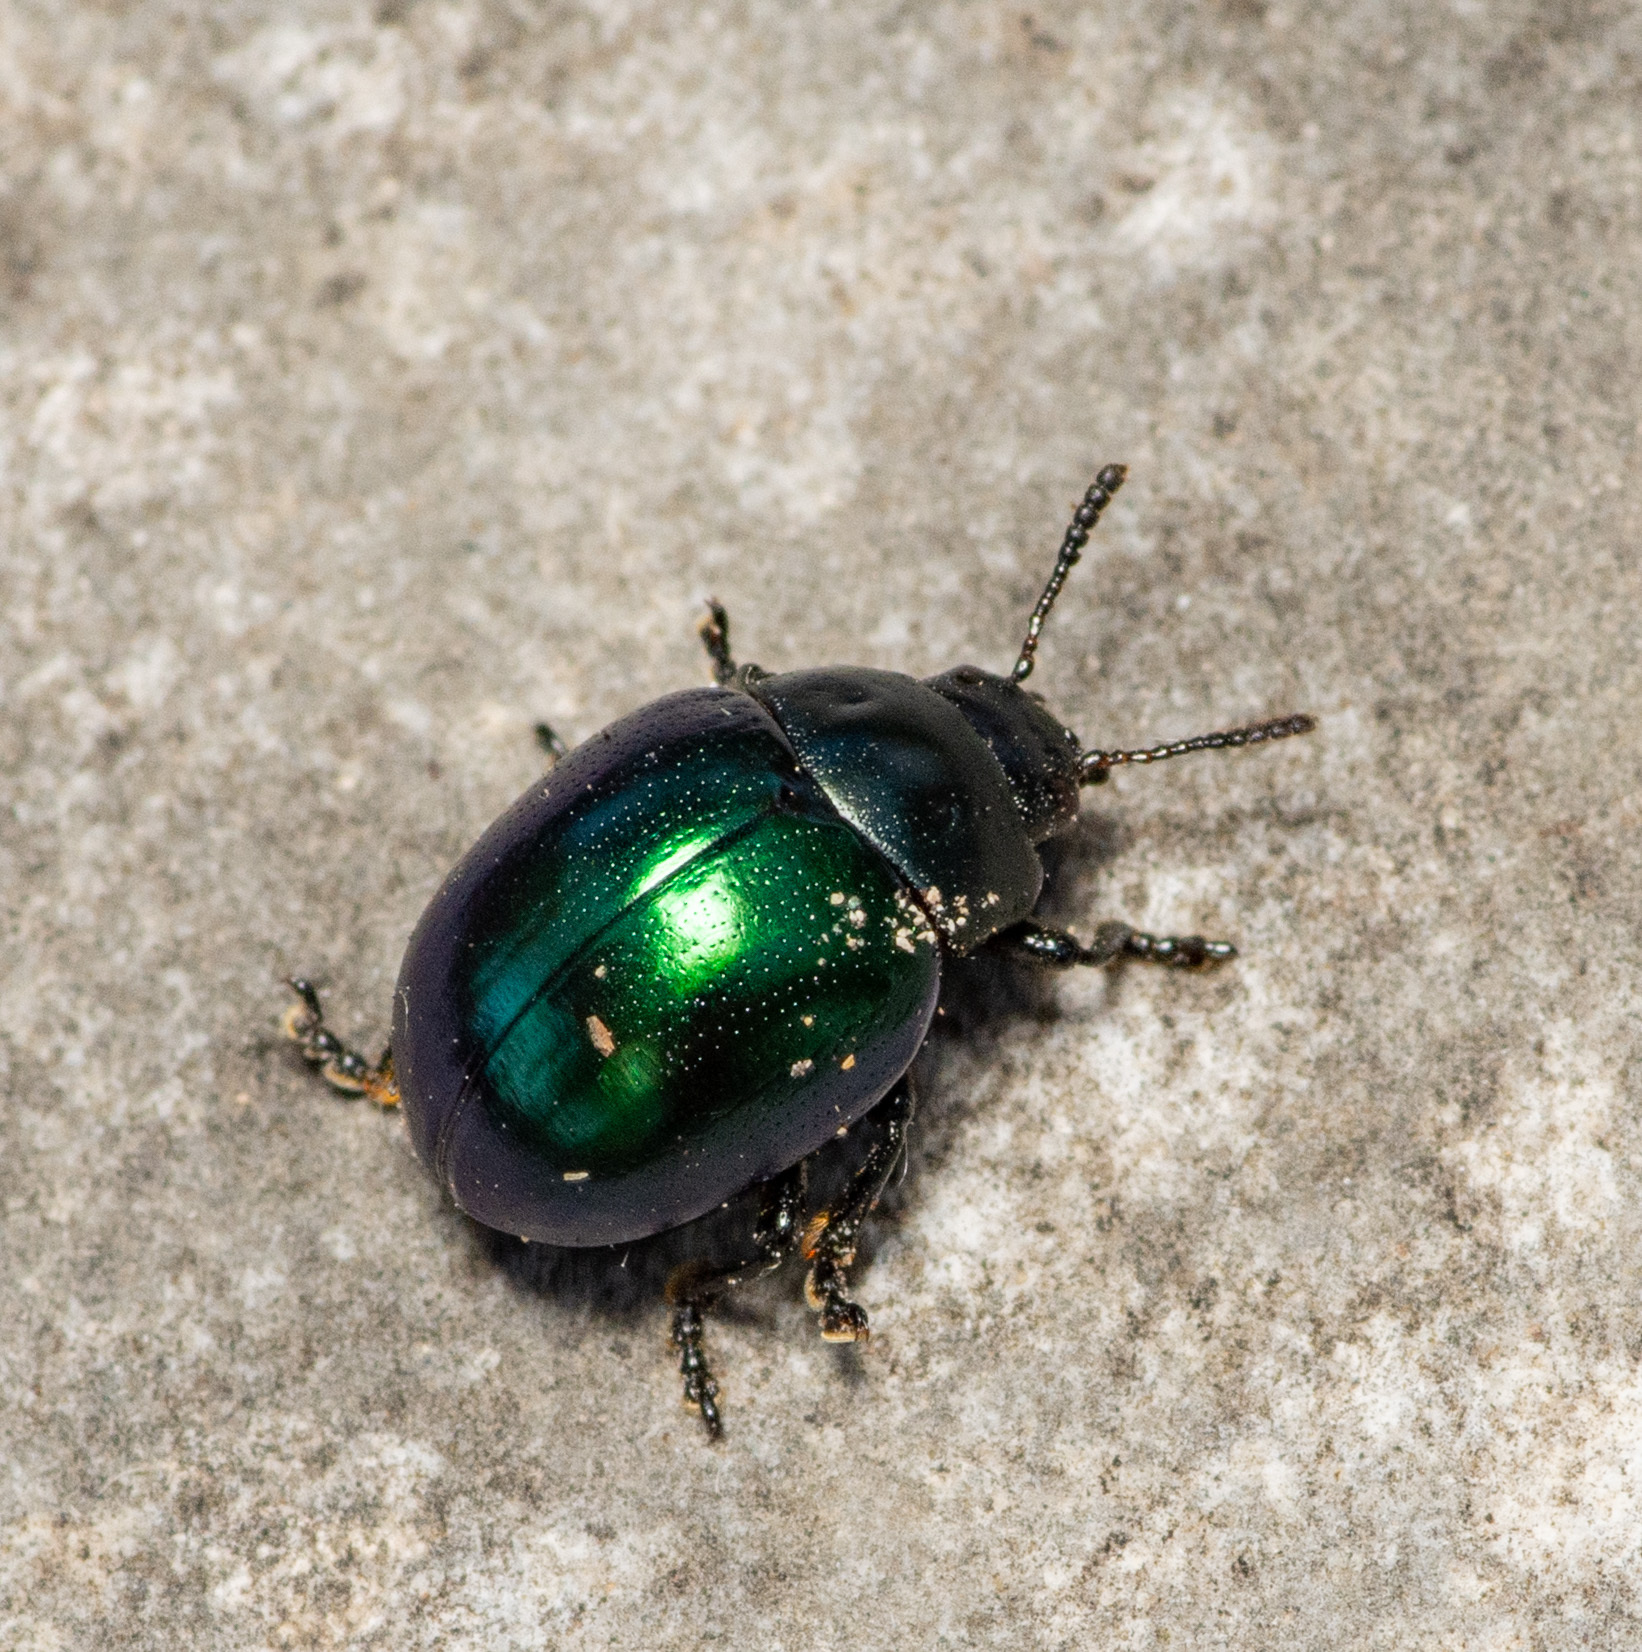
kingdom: Animalia
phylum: Arthropoda
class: Insecta
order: Coleoptera
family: Chrysomelidae
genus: Leptinotarsa
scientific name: Leptinotarsa haldemani
